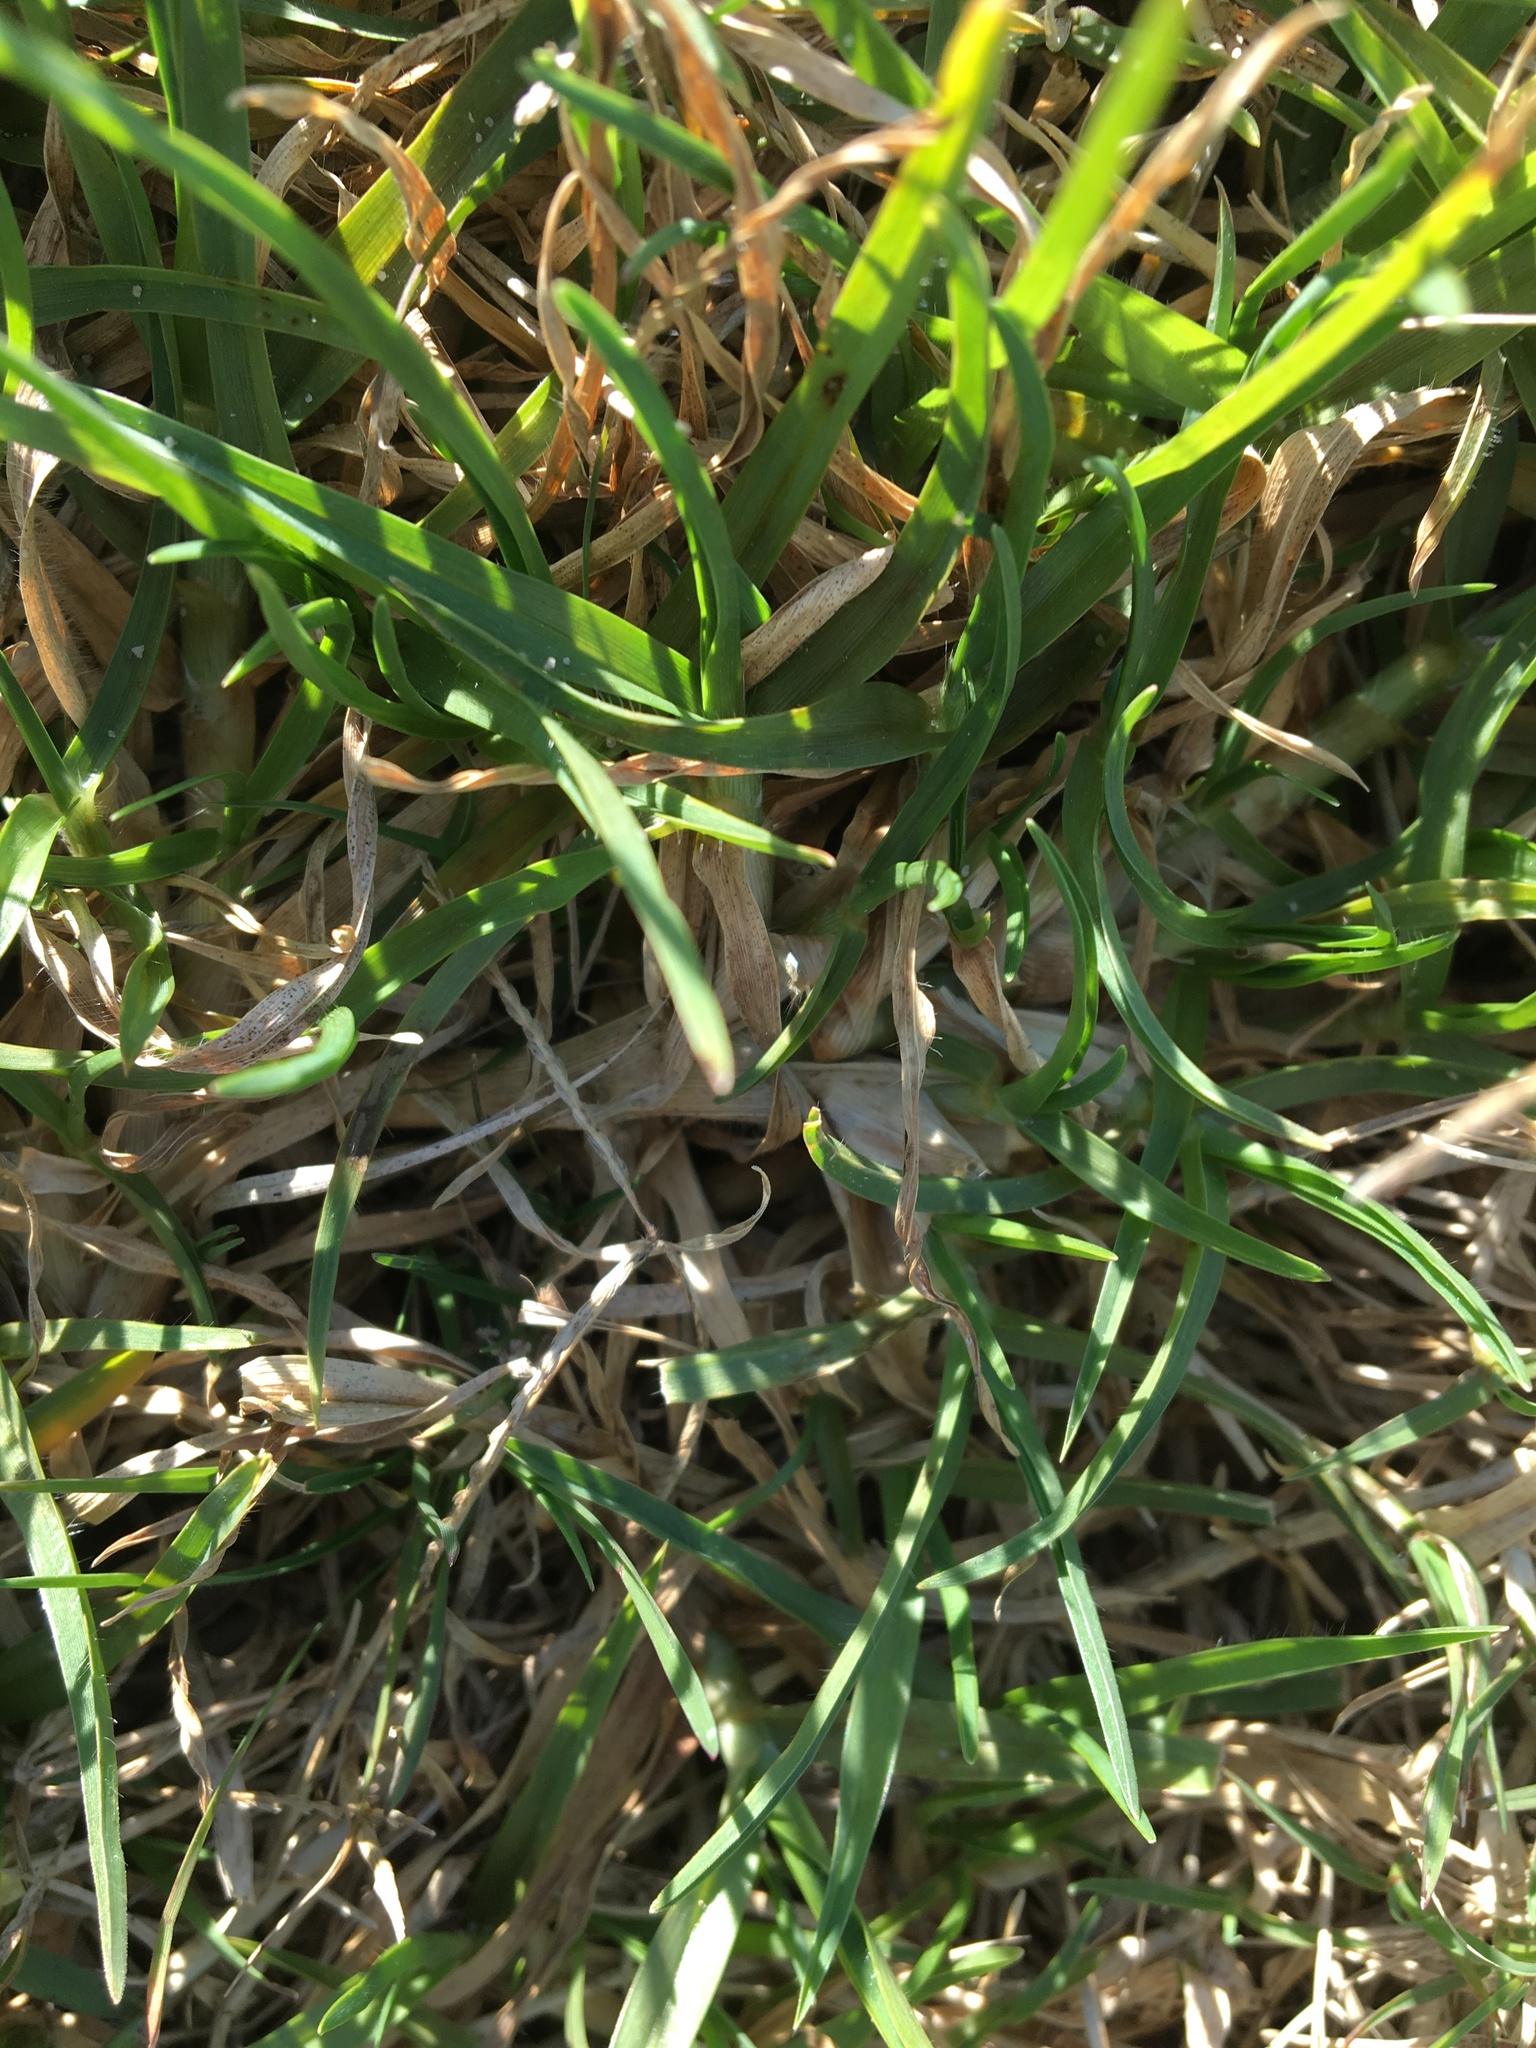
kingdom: Plantae
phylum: Tracheophyta
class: Liliopsida
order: Poales
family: Poaceae
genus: Cenchrus
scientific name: Cenchrus clandestinus
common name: Kikuyugrass
